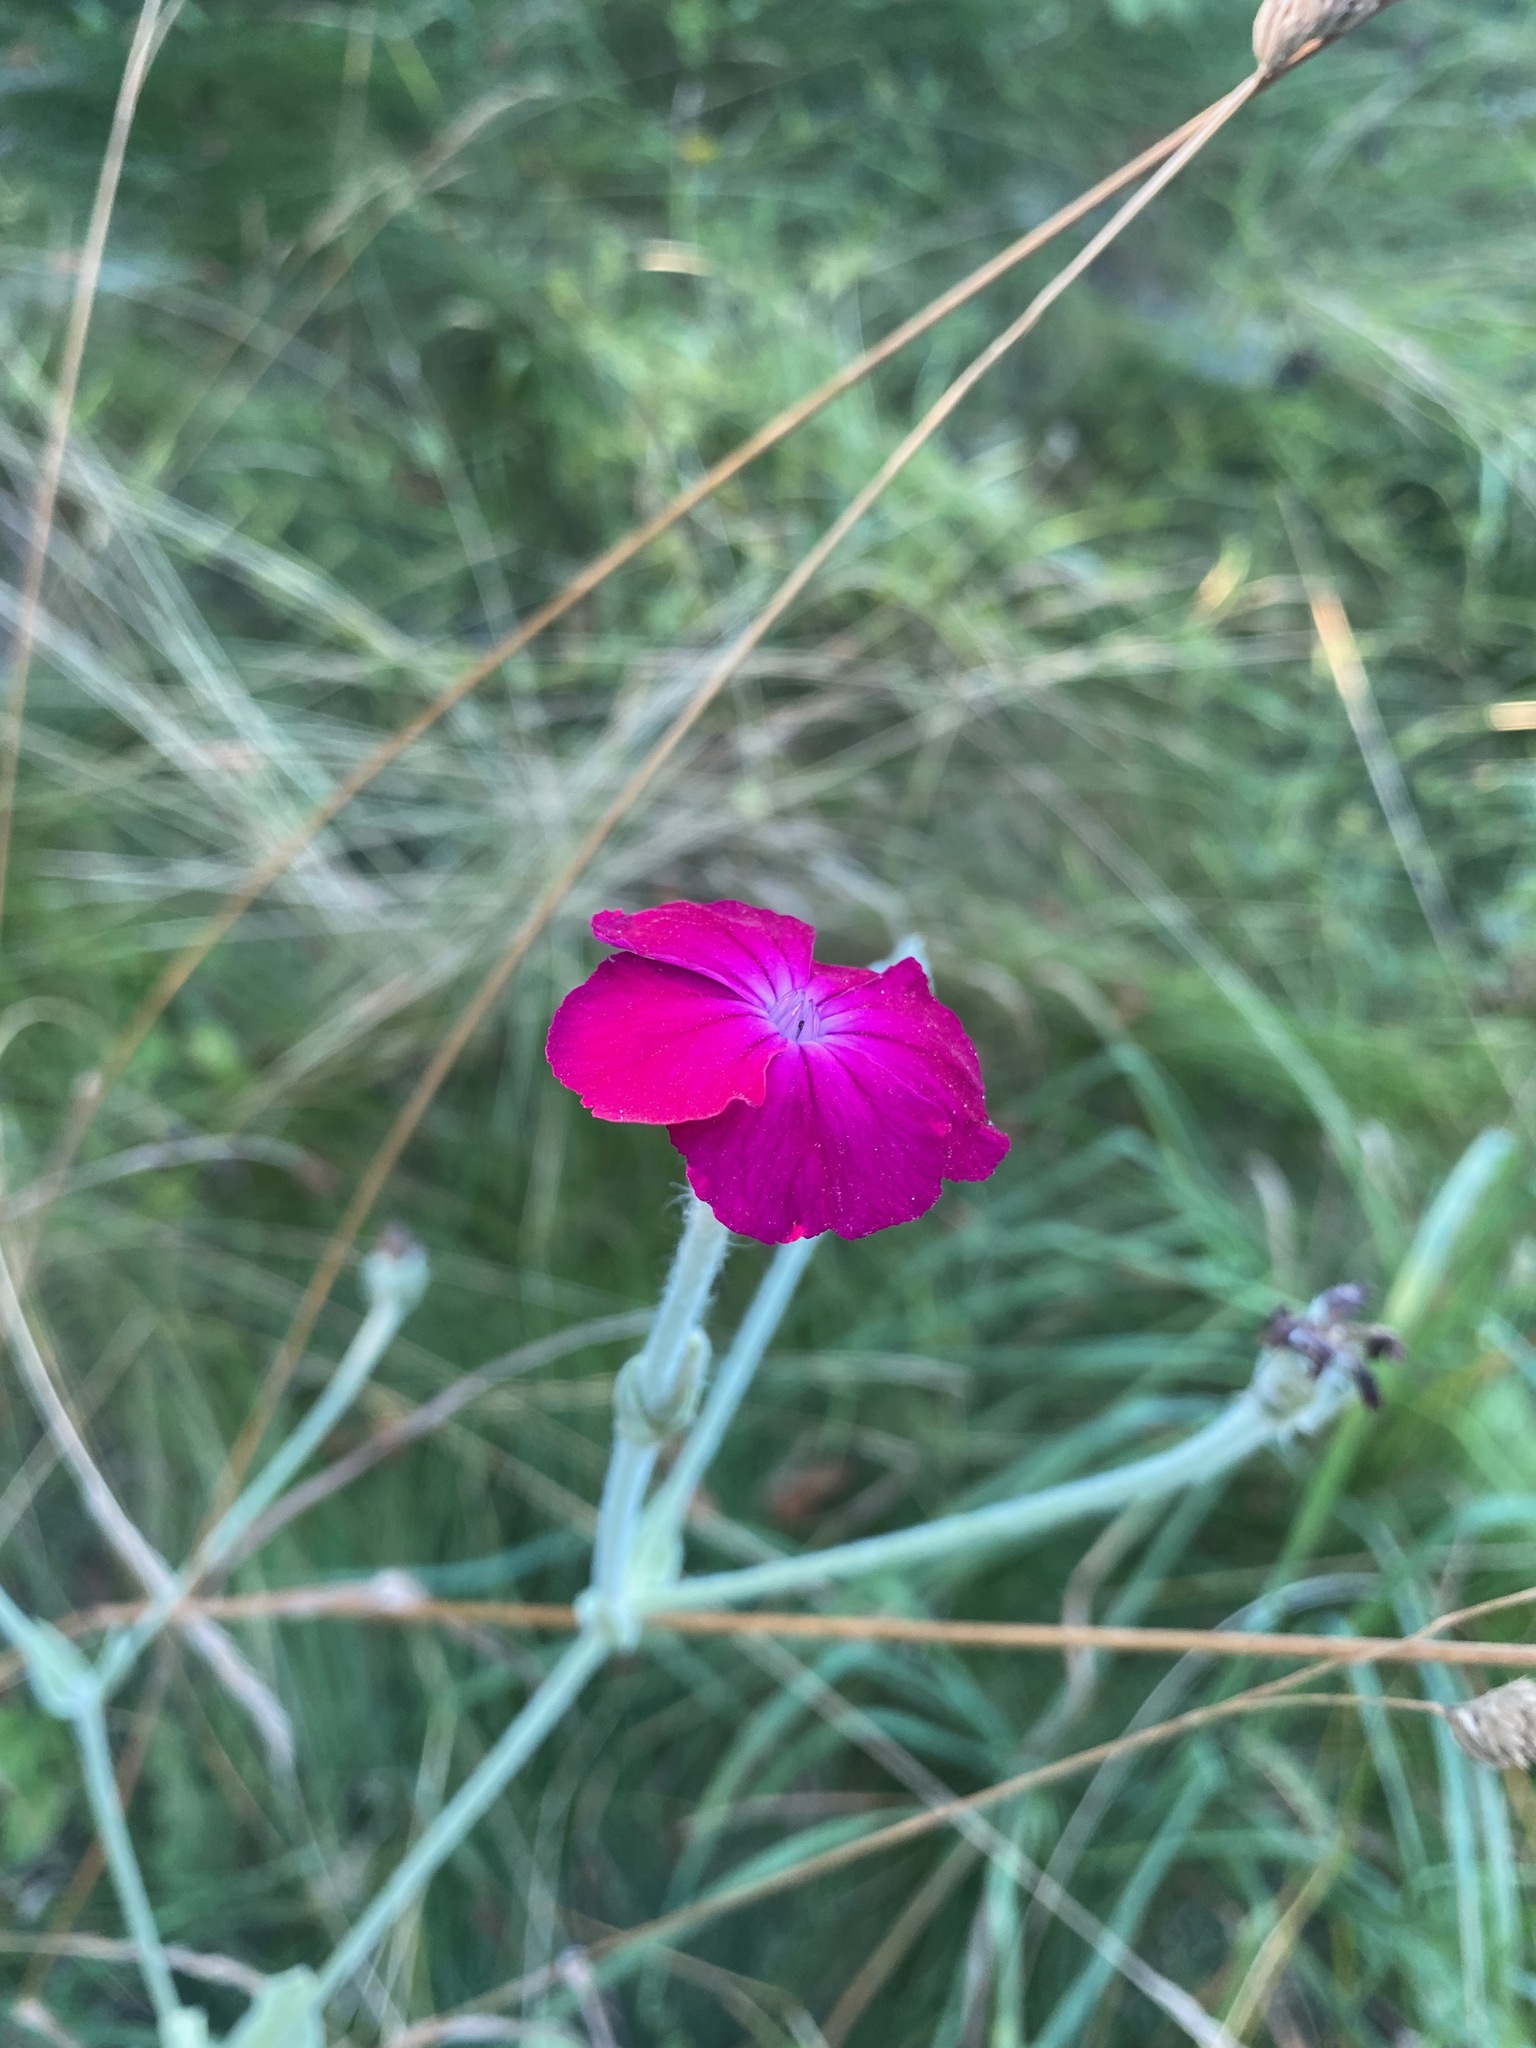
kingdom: Plantae
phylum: Tracheophyta
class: Magnoliopsida
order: Caryophyllales
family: Caryophyllaceae
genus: Silene
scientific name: Silene coronaria
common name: Rose campion
